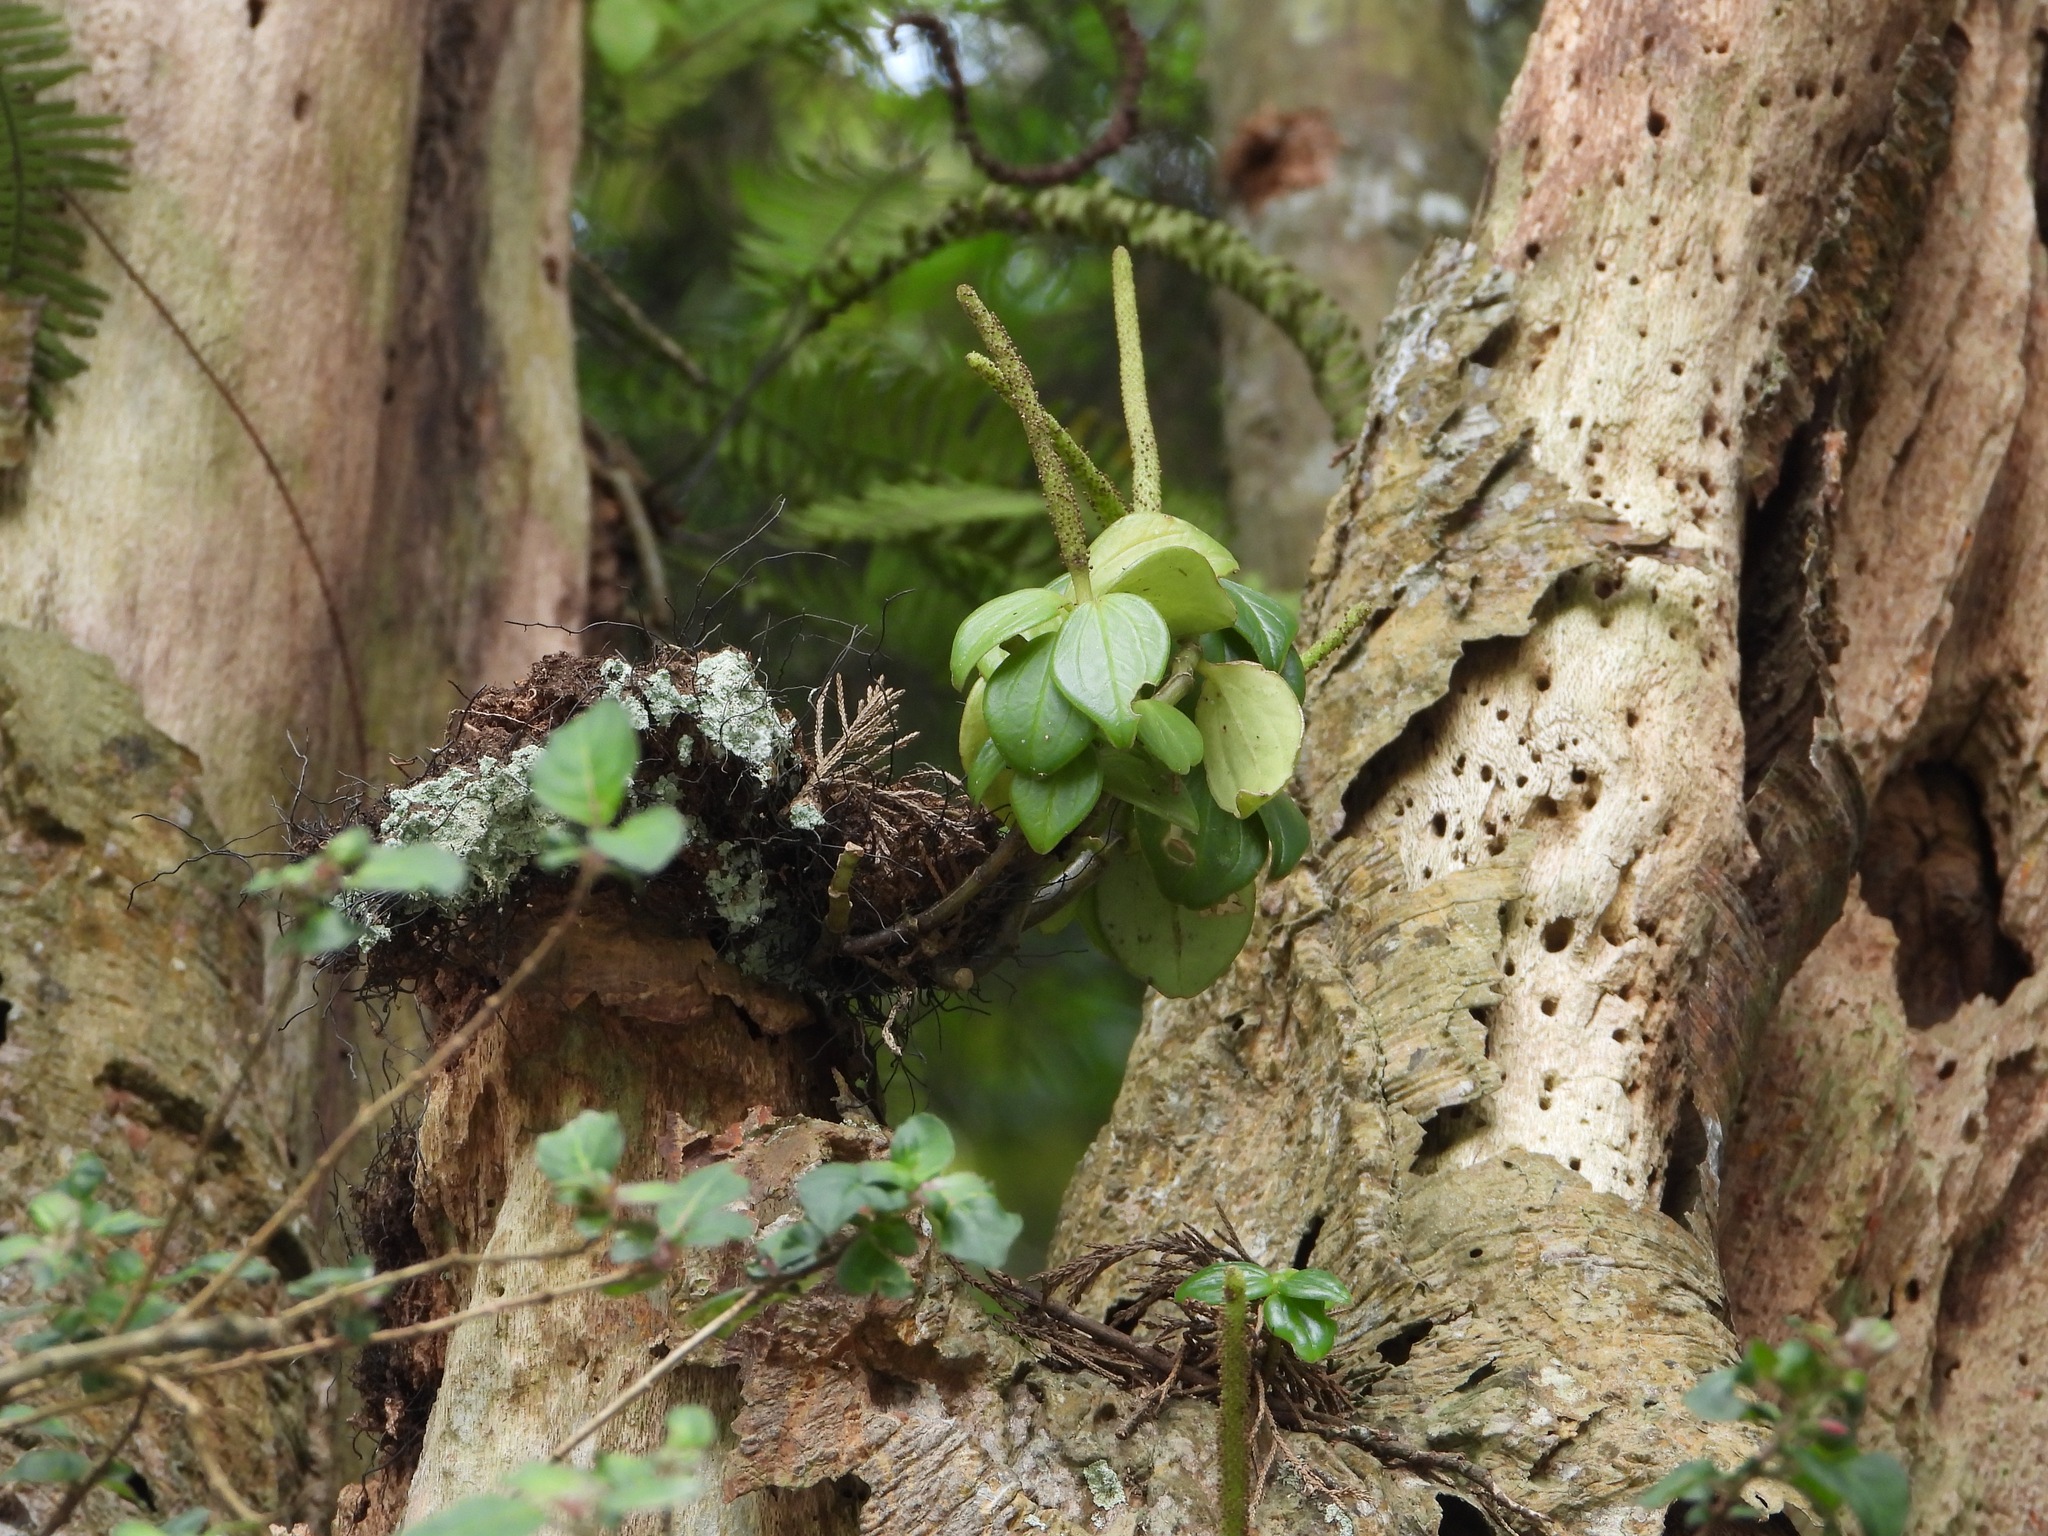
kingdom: Plantae
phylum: Tracheophyta
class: Magnoliopsida
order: Piperales
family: Piperaceae
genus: Peperomia
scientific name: Peperomia san-joseana
